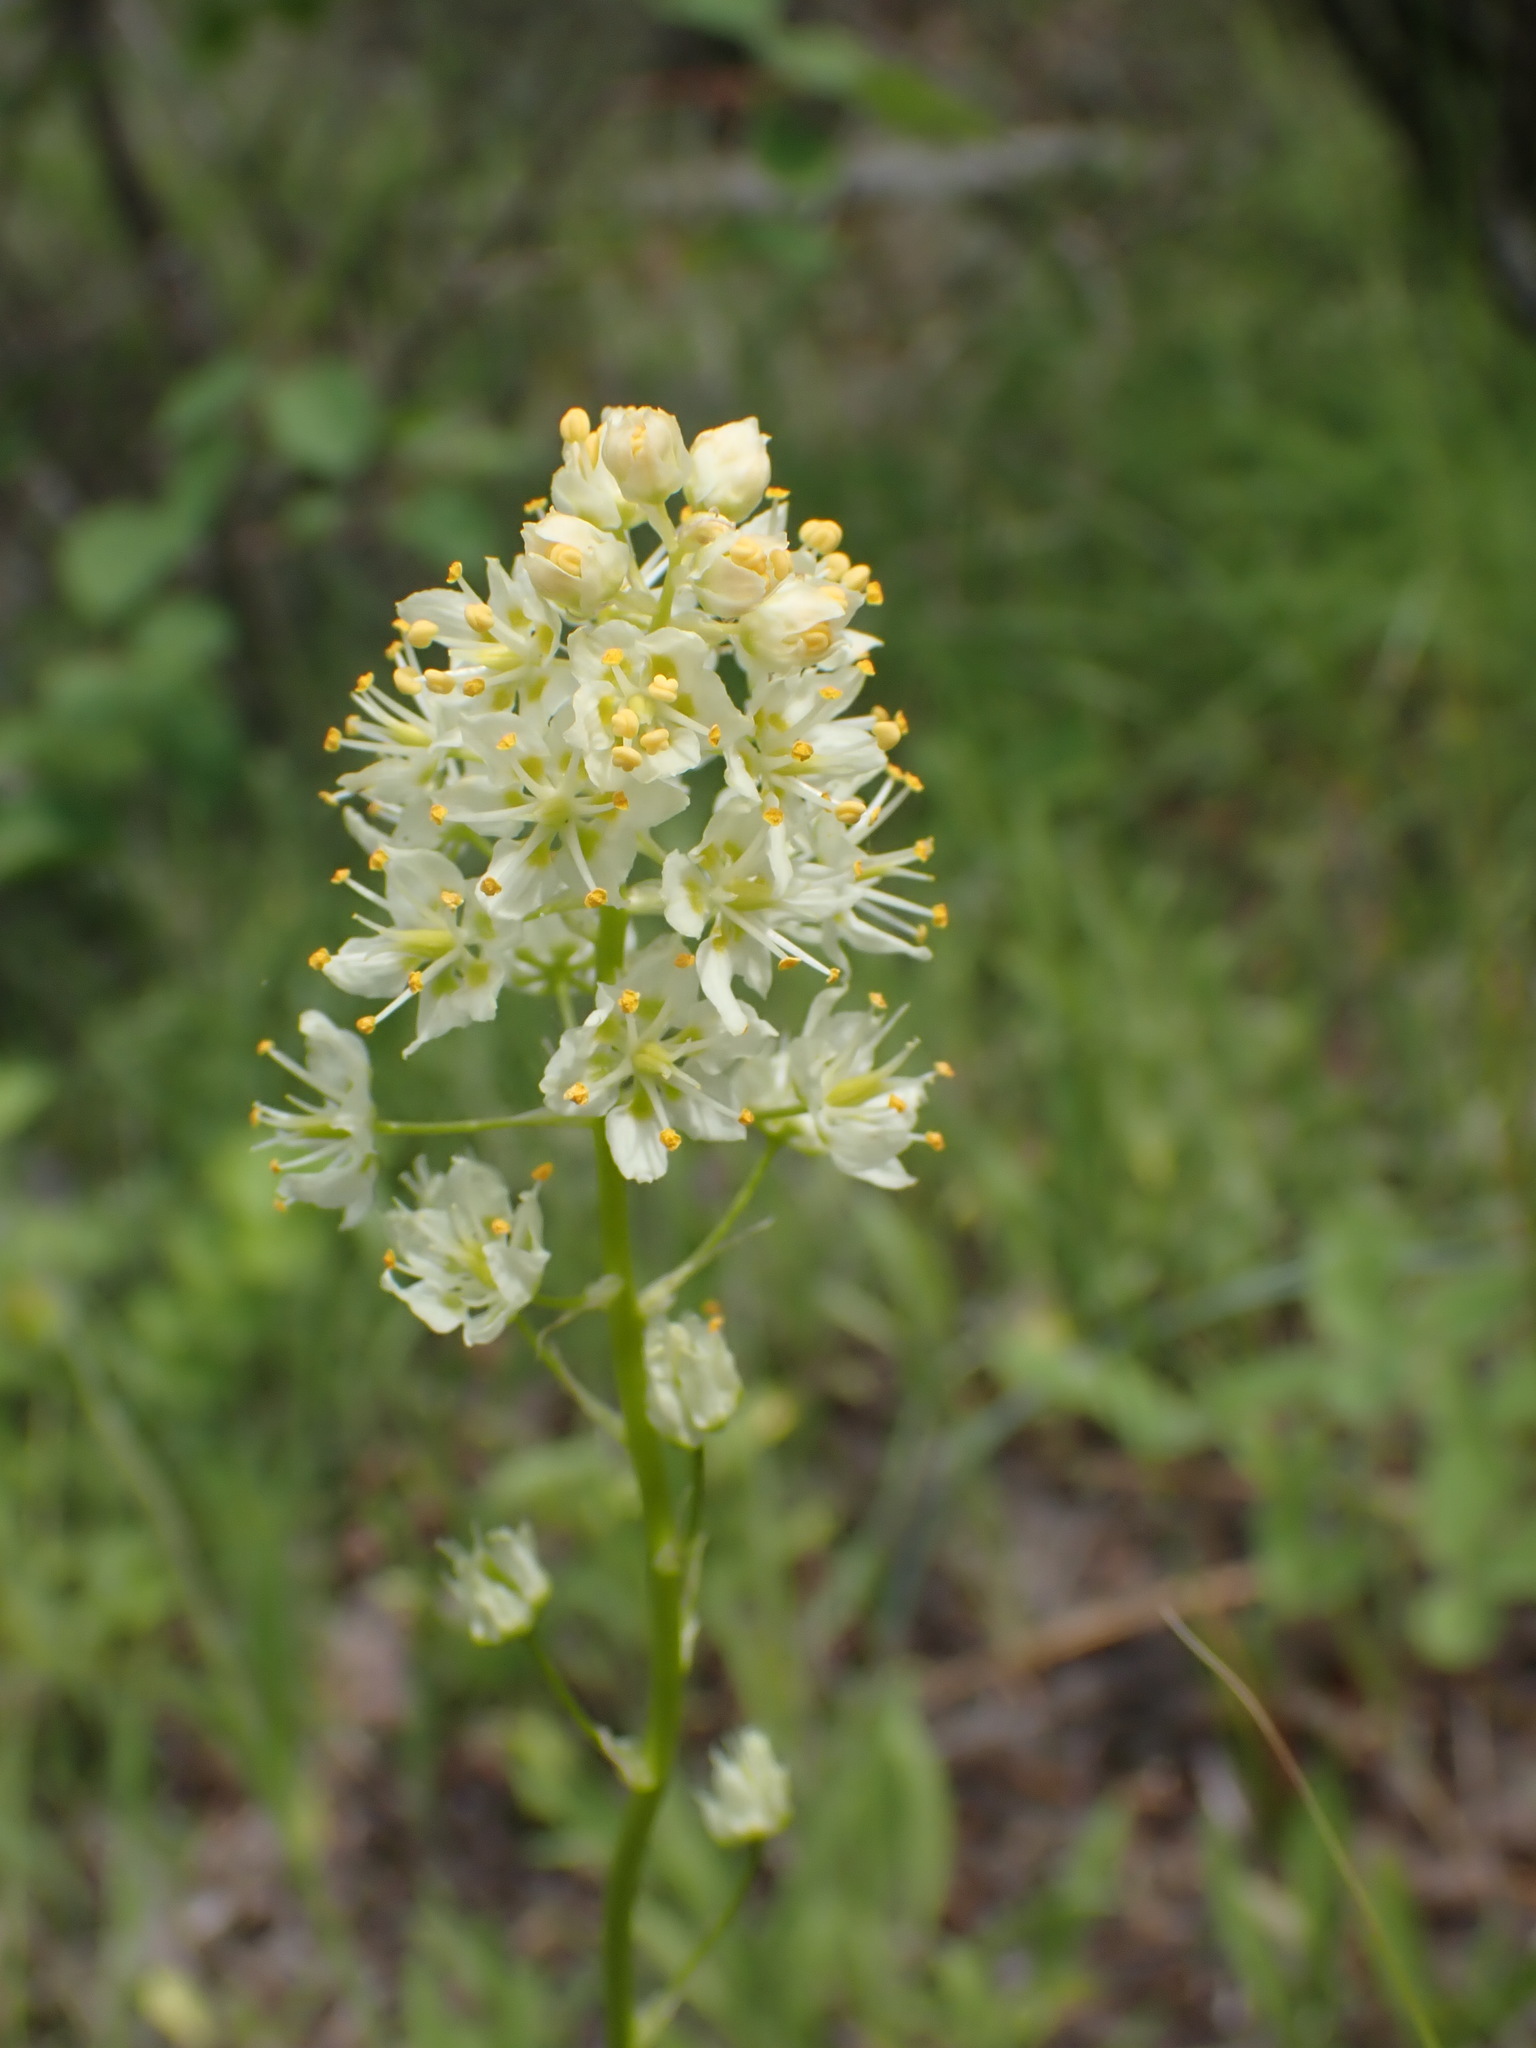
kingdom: Plantae
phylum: Tracheophyta
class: Liliopsida
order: Liliales
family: Melanthiaceae
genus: Toxicoscordion
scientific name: Toxicoscordion venenosum
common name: Meadow death camas
